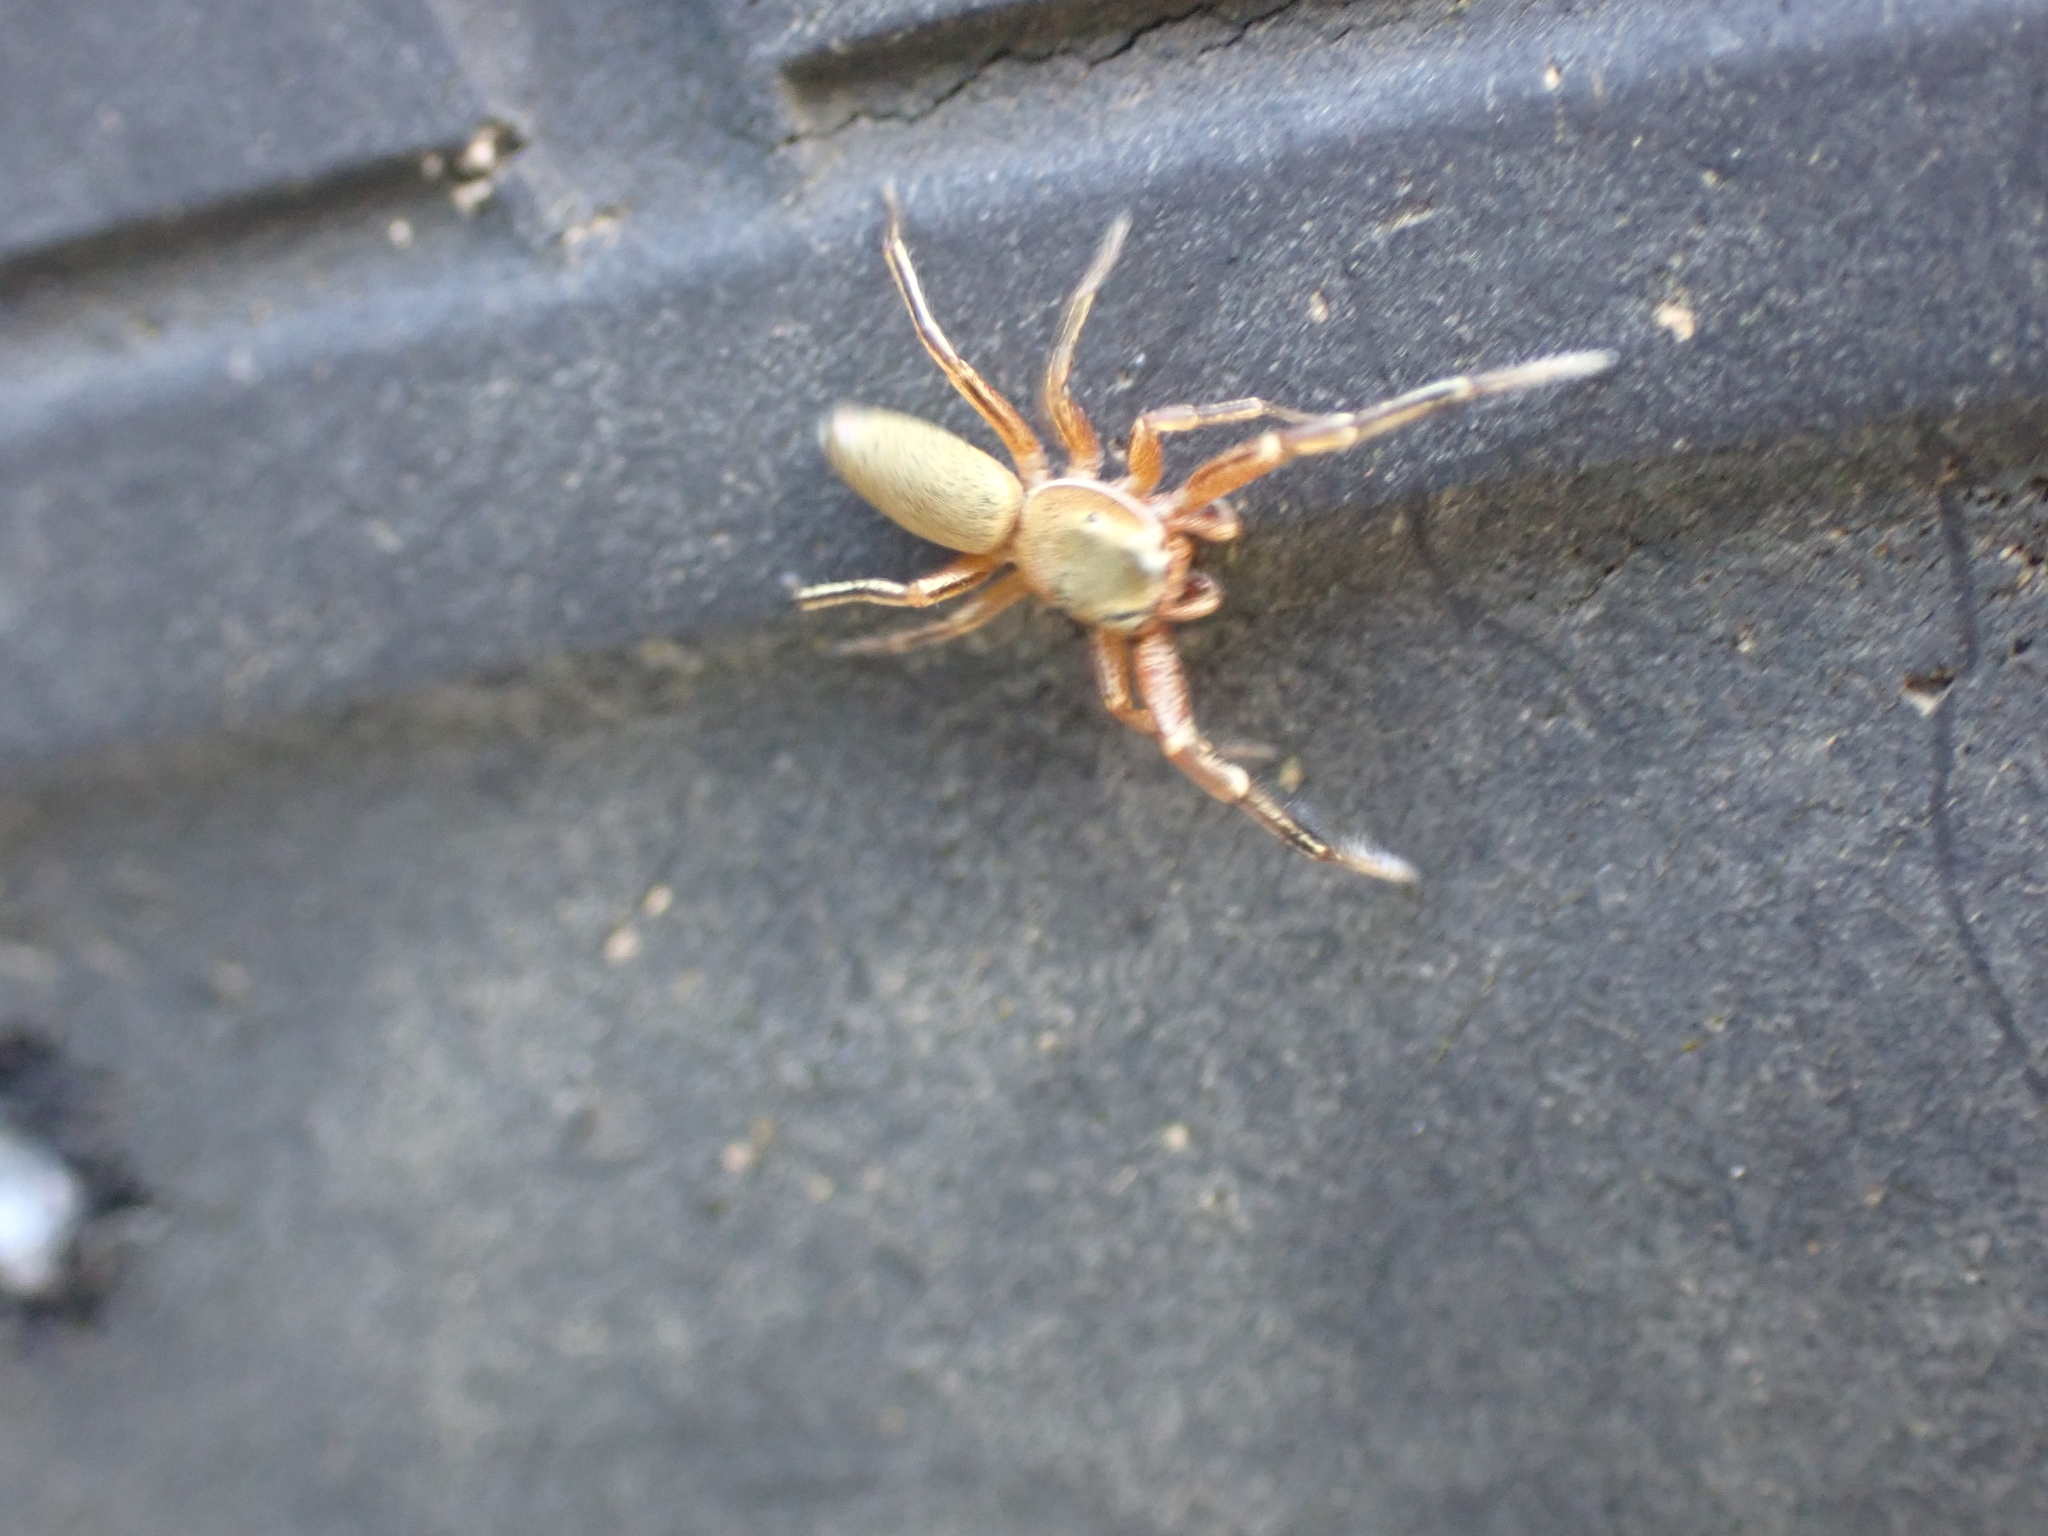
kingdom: Animalia
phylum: Arthropoda
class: Arachnida
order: Araneae
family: Salticidae
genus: Tutelina
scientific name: Tutelina elegans
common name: Thin-spined jumping spider
